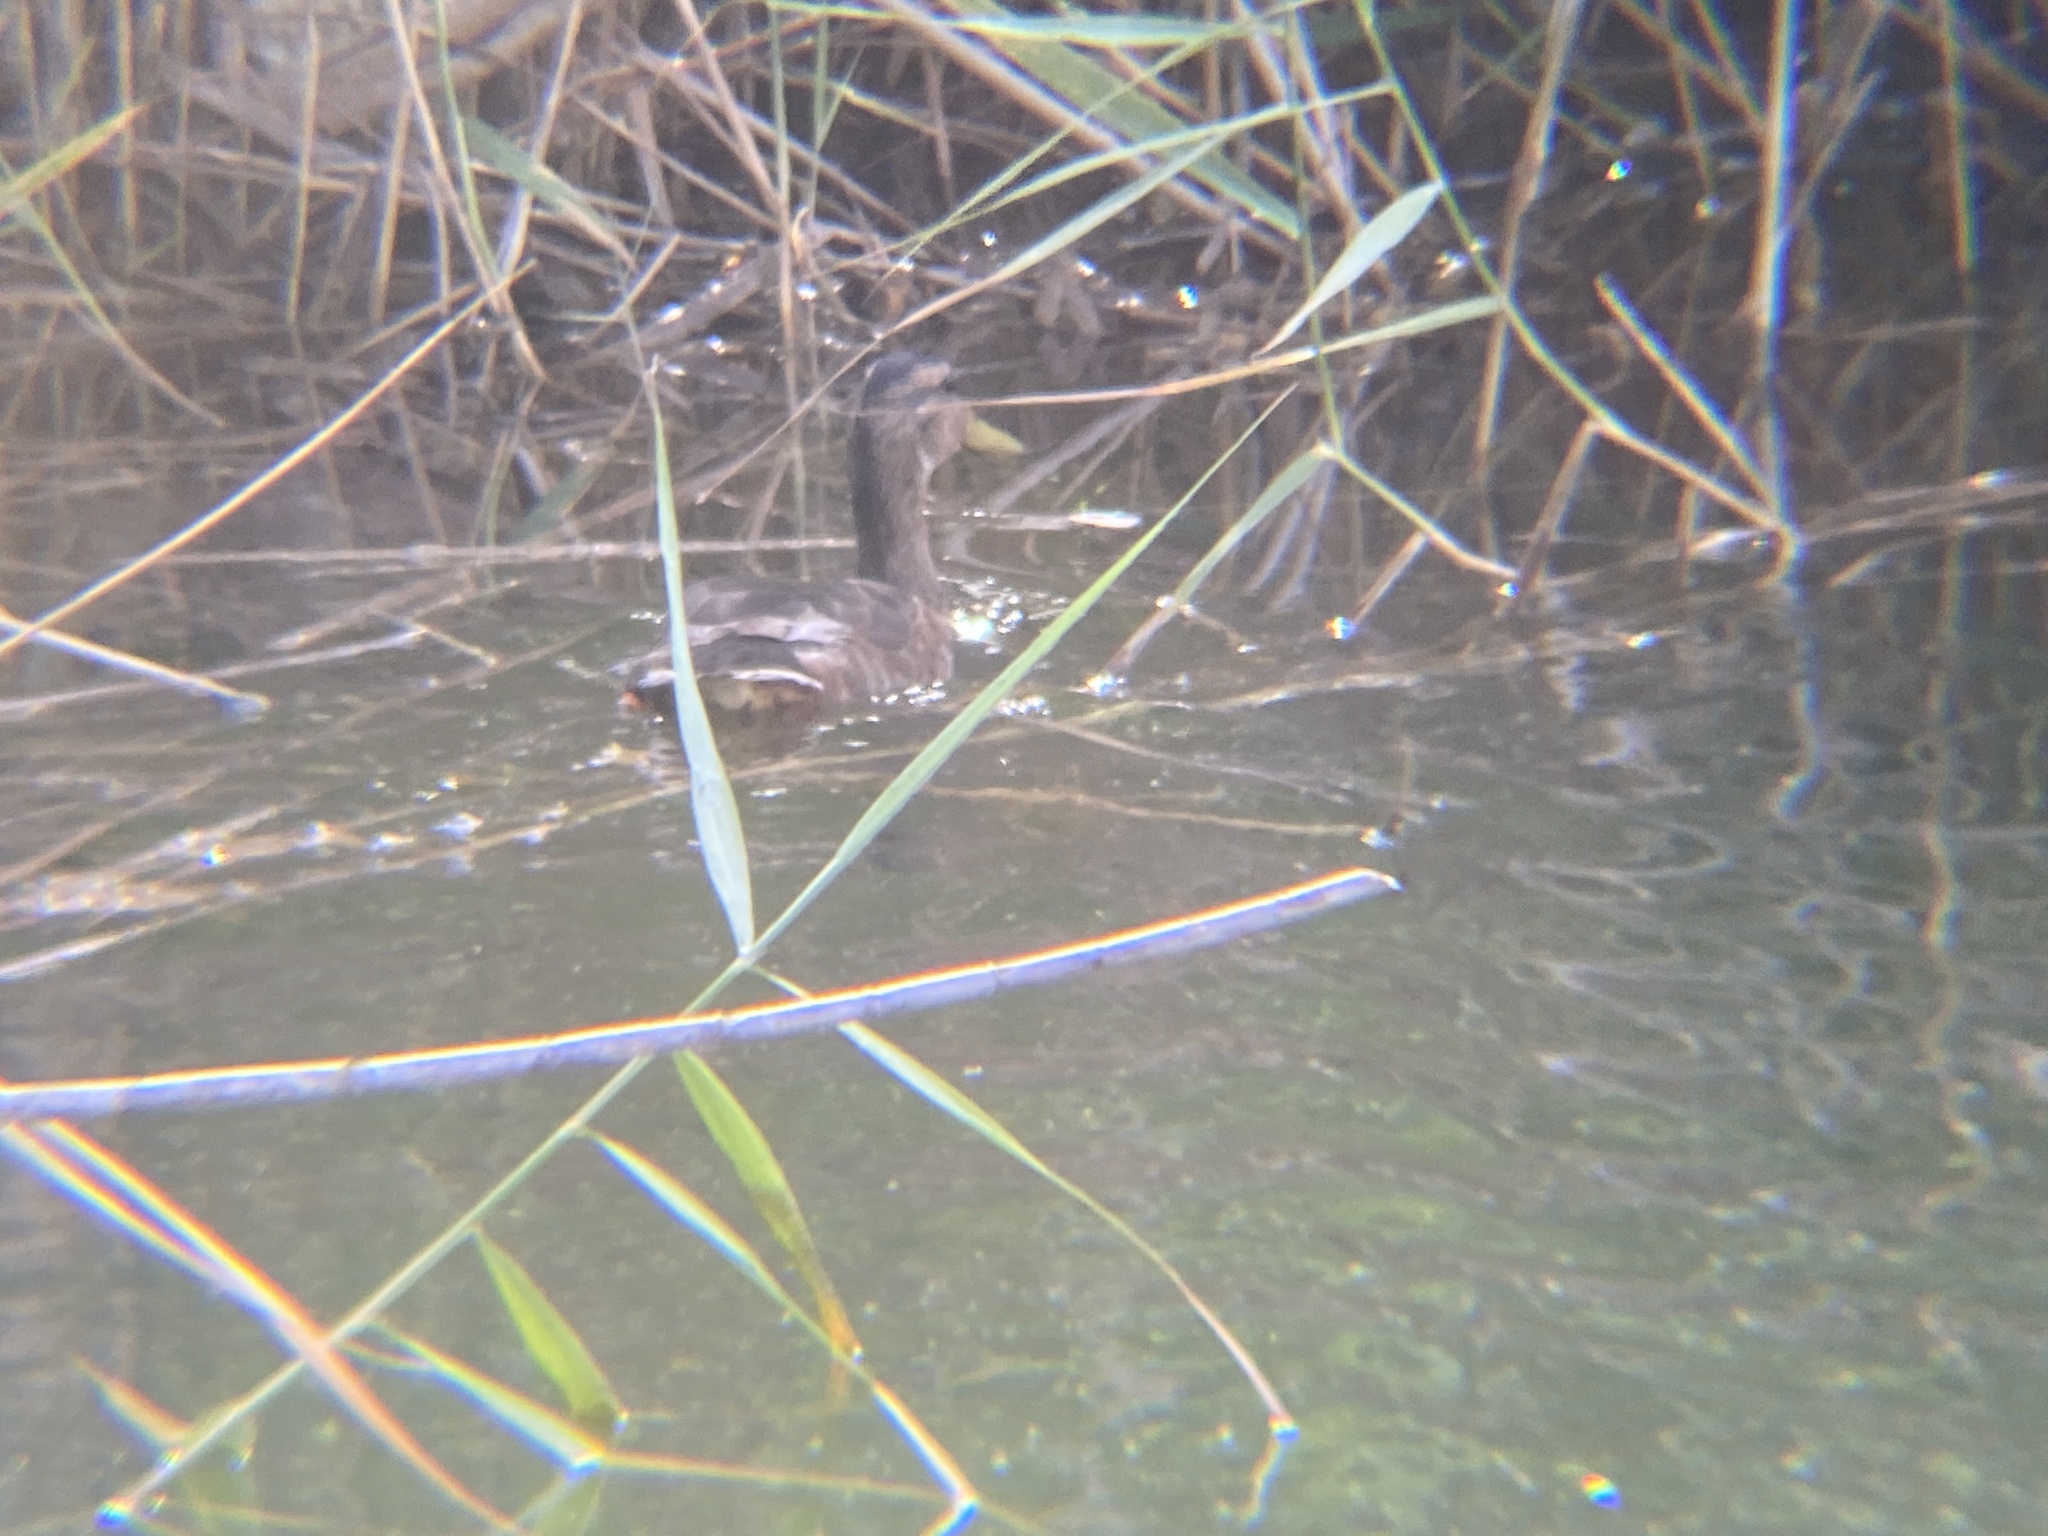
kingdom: Animalia
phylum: Chordata
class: Aves
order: Anseriformes
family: Anatidae
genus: Anas
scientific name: Anas platyrhynchos
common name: Mallard
